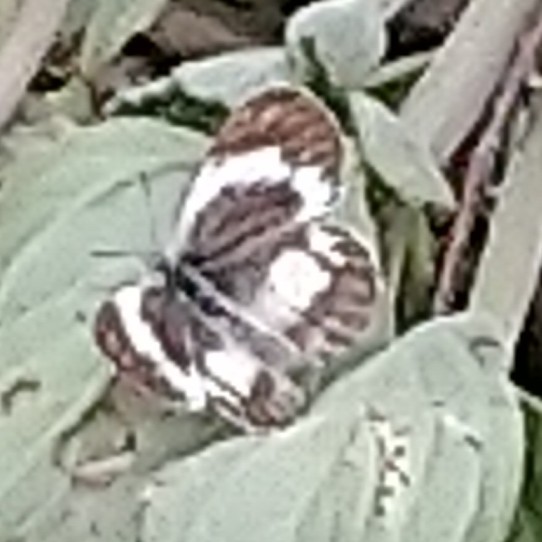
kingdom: Animalia
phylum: Arthropoda
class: Insecta
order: Lepidoptera
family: Pieridae
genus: Colotis
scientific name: Colotis antevippe
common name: Large orange tip
